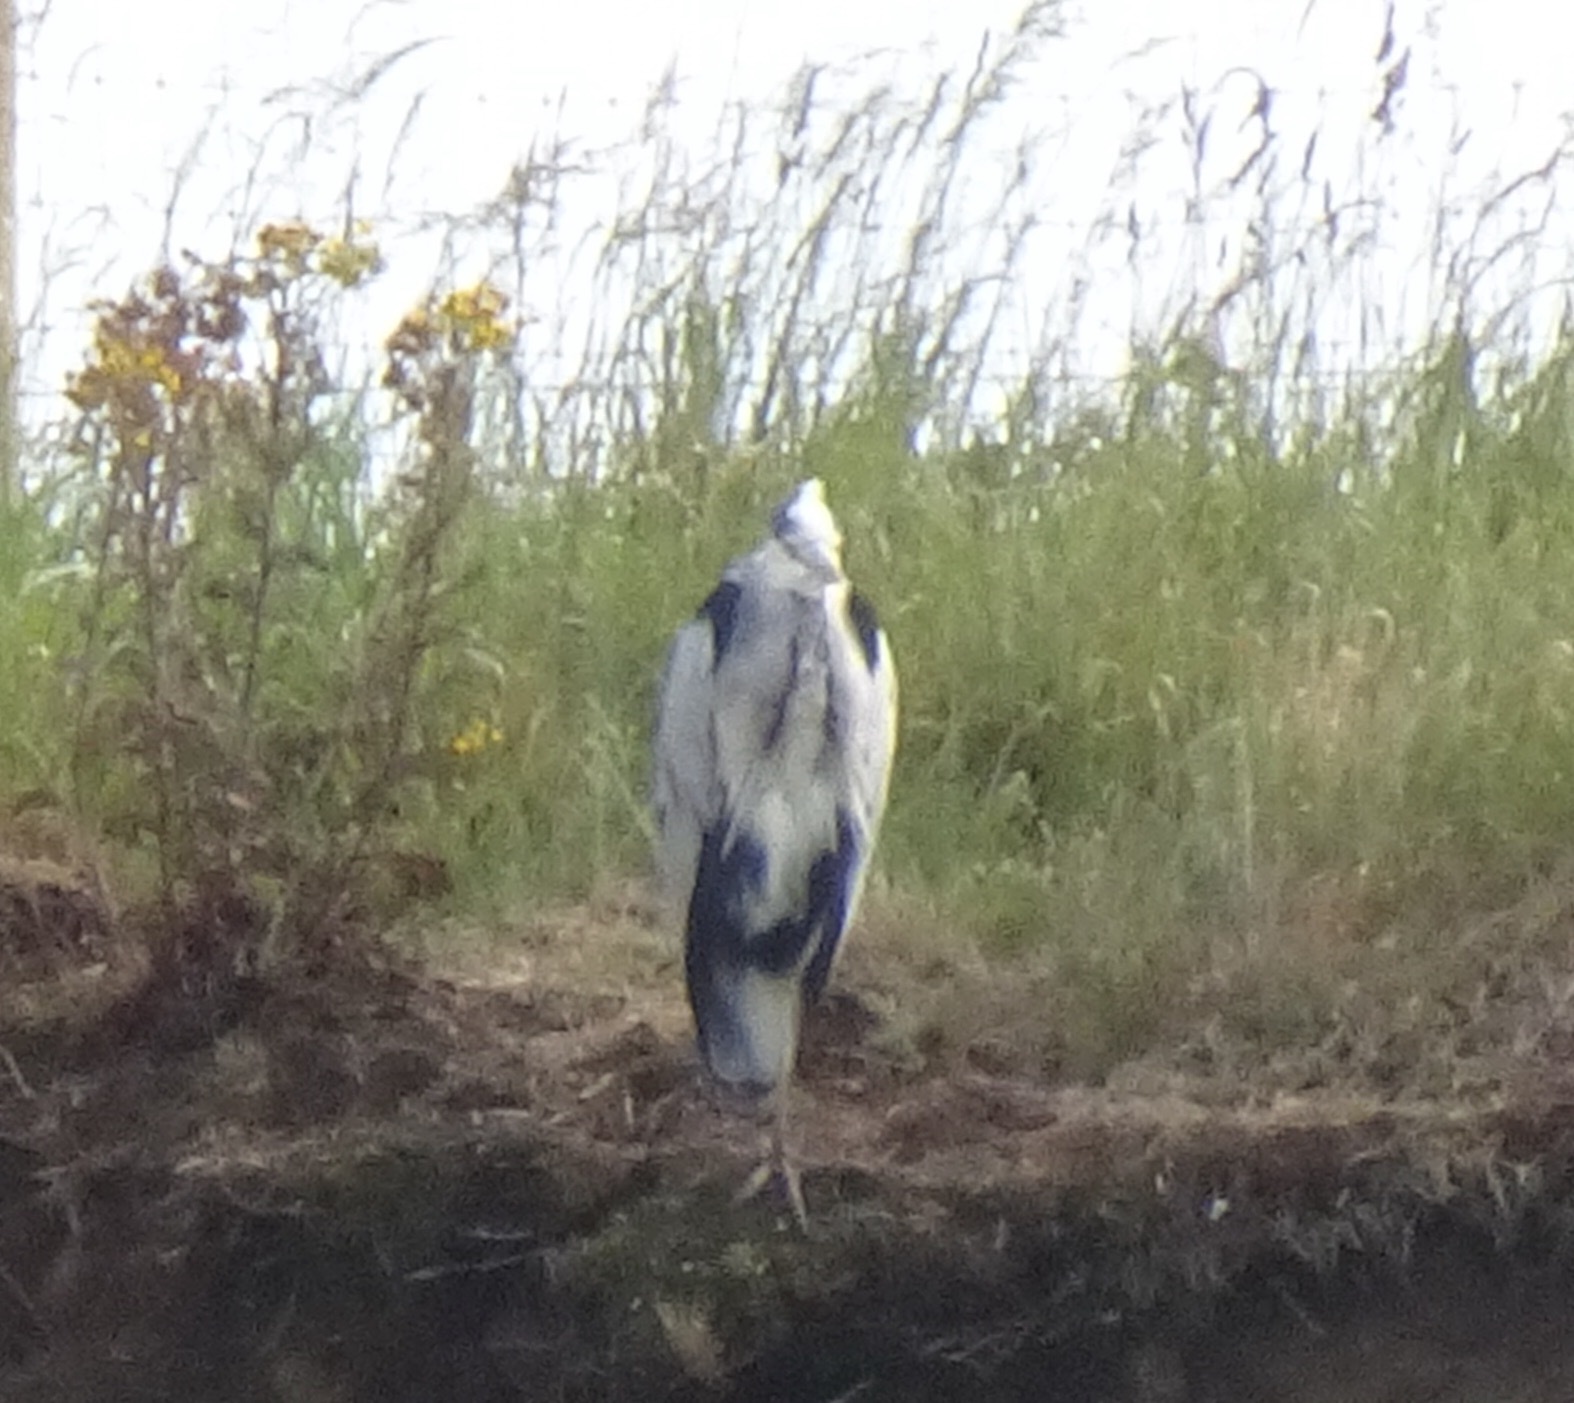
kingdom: Animalia
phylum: Chordata
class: Aves
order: Pelecaniformes
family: Ardeidae
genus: Ardea
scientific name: Ardea cinerea
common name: Grey heron
